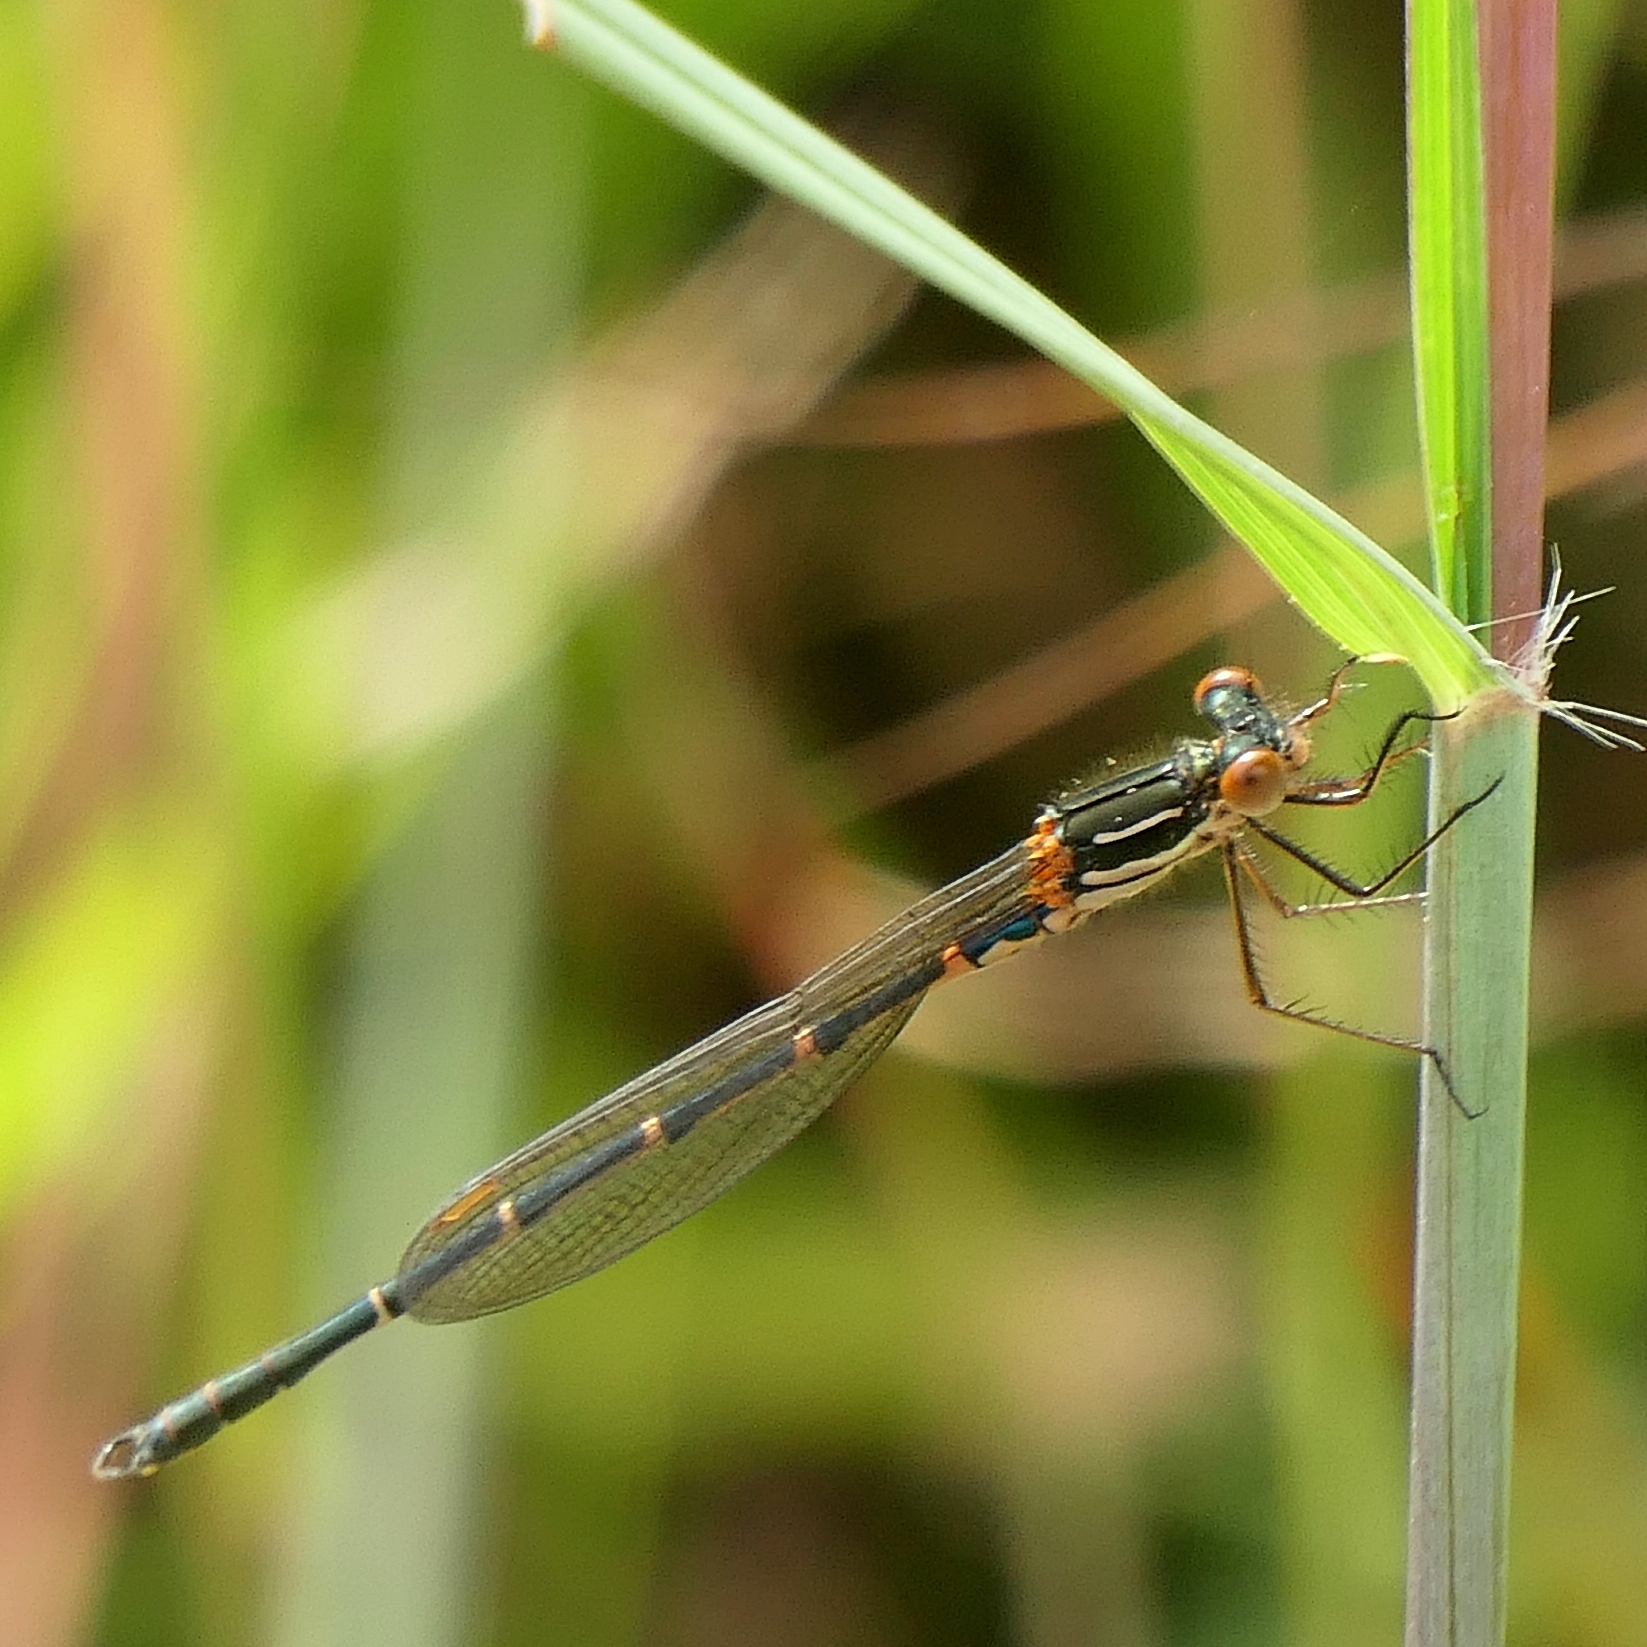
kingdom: Animalia
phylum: Arthropoda
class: Insecta
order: Odonata
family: Lestidae
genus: Austrolestes
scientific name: Austrolestes psyche
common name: Cup ringtail
